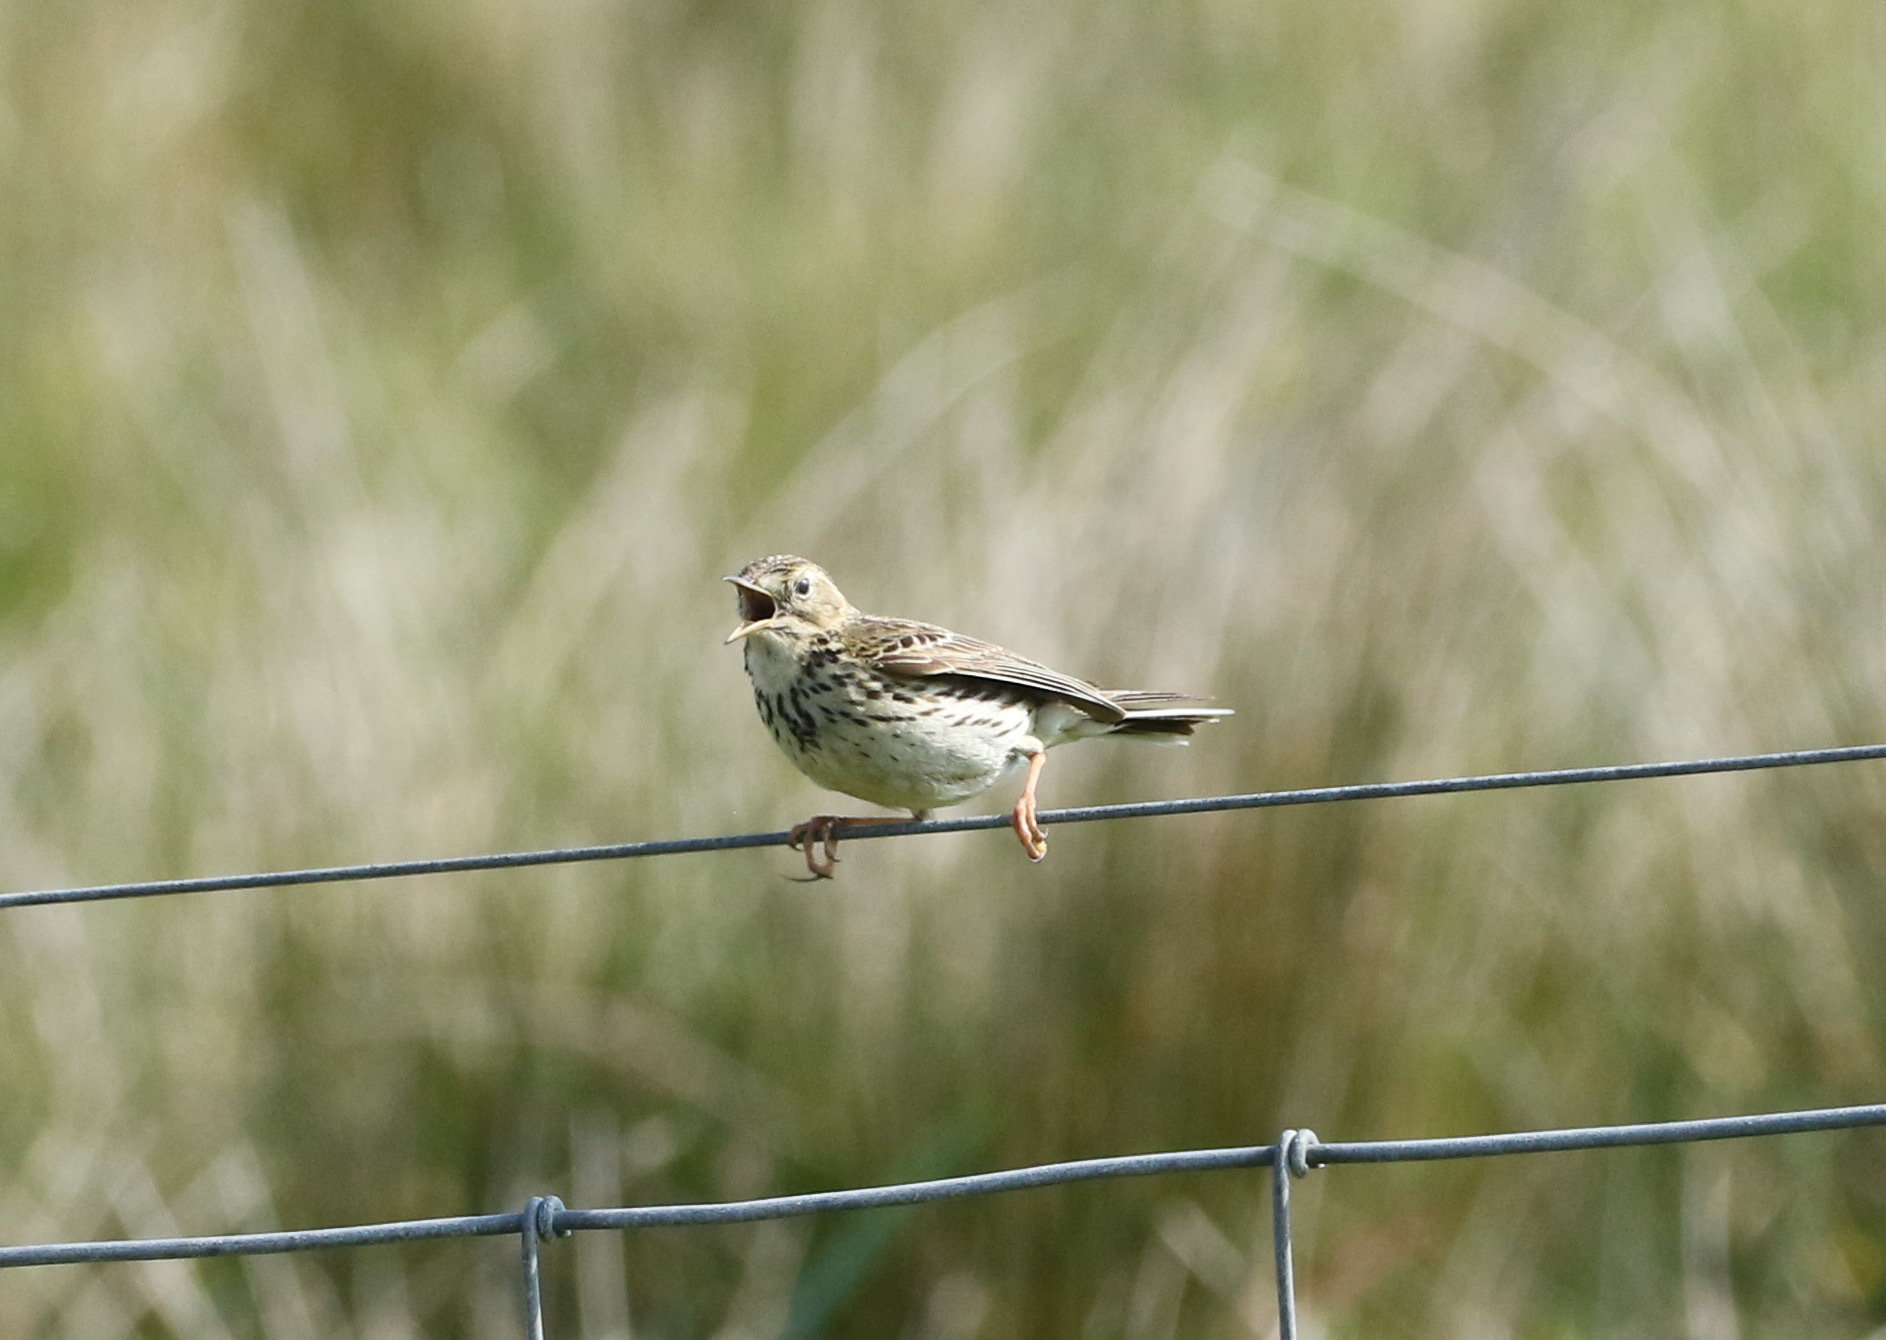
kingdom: Animalia
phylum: Chordata
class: Aves
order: Passeriformes
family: Motacillidae
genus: Anthus
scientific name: Anthus pratensis
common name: Meadow pipit
